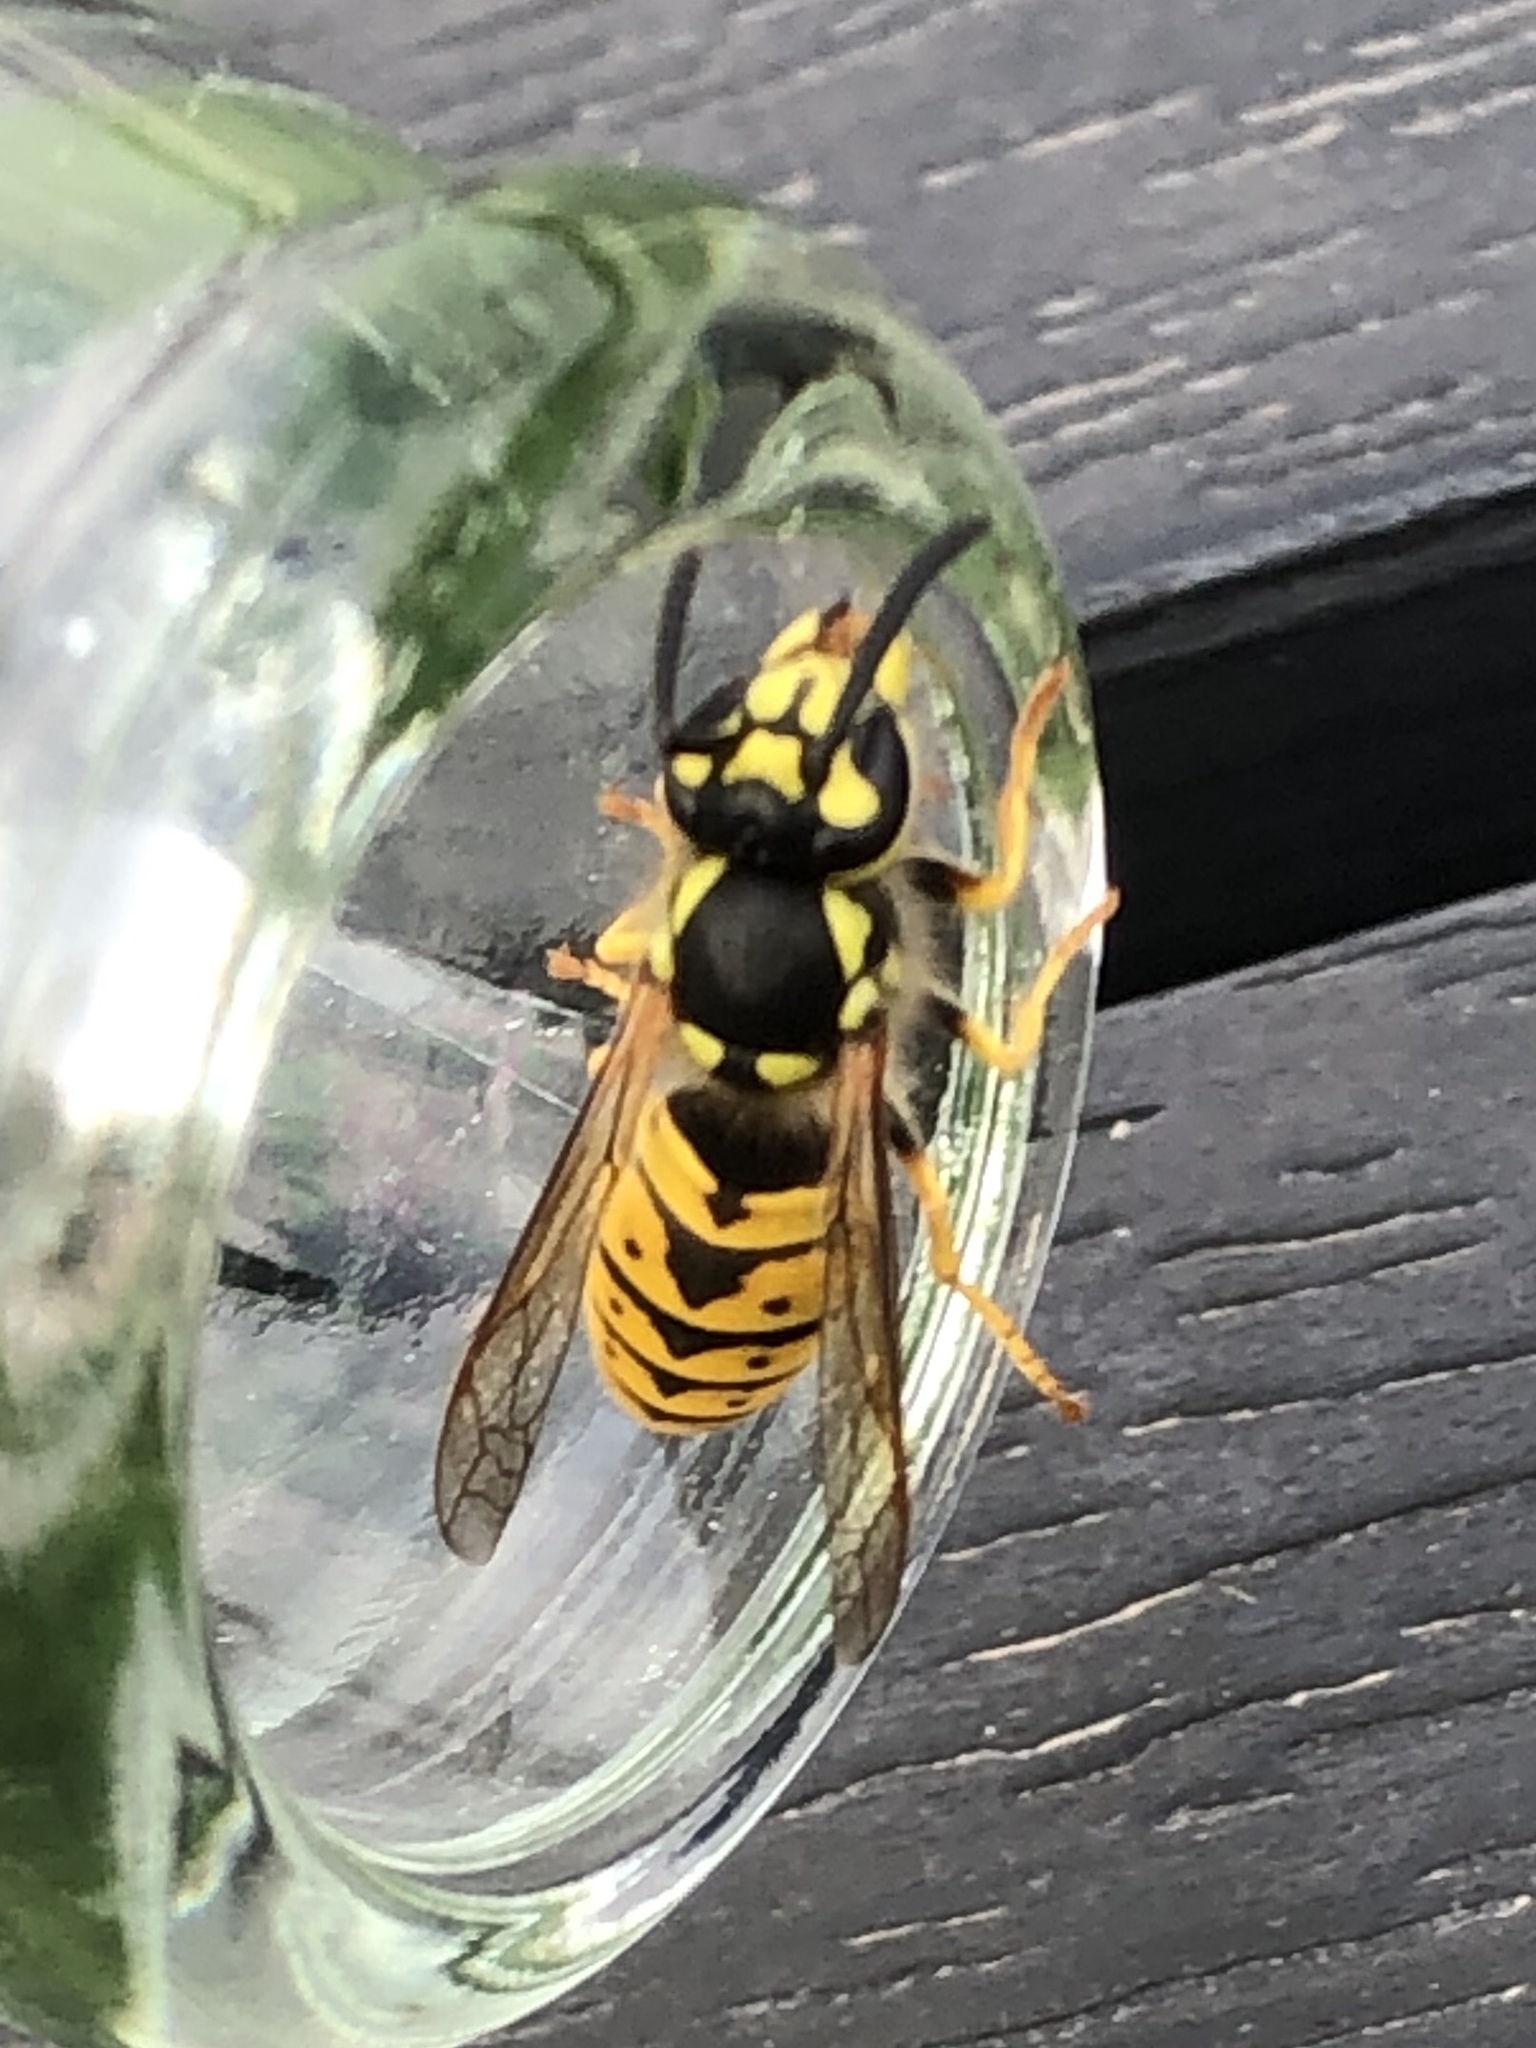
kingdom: Animalia
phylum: Arthropoda
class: Insecta
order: Hymenoptera
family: Vespidae
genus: Vespula
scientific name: Vespula germanica
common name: German wasp
